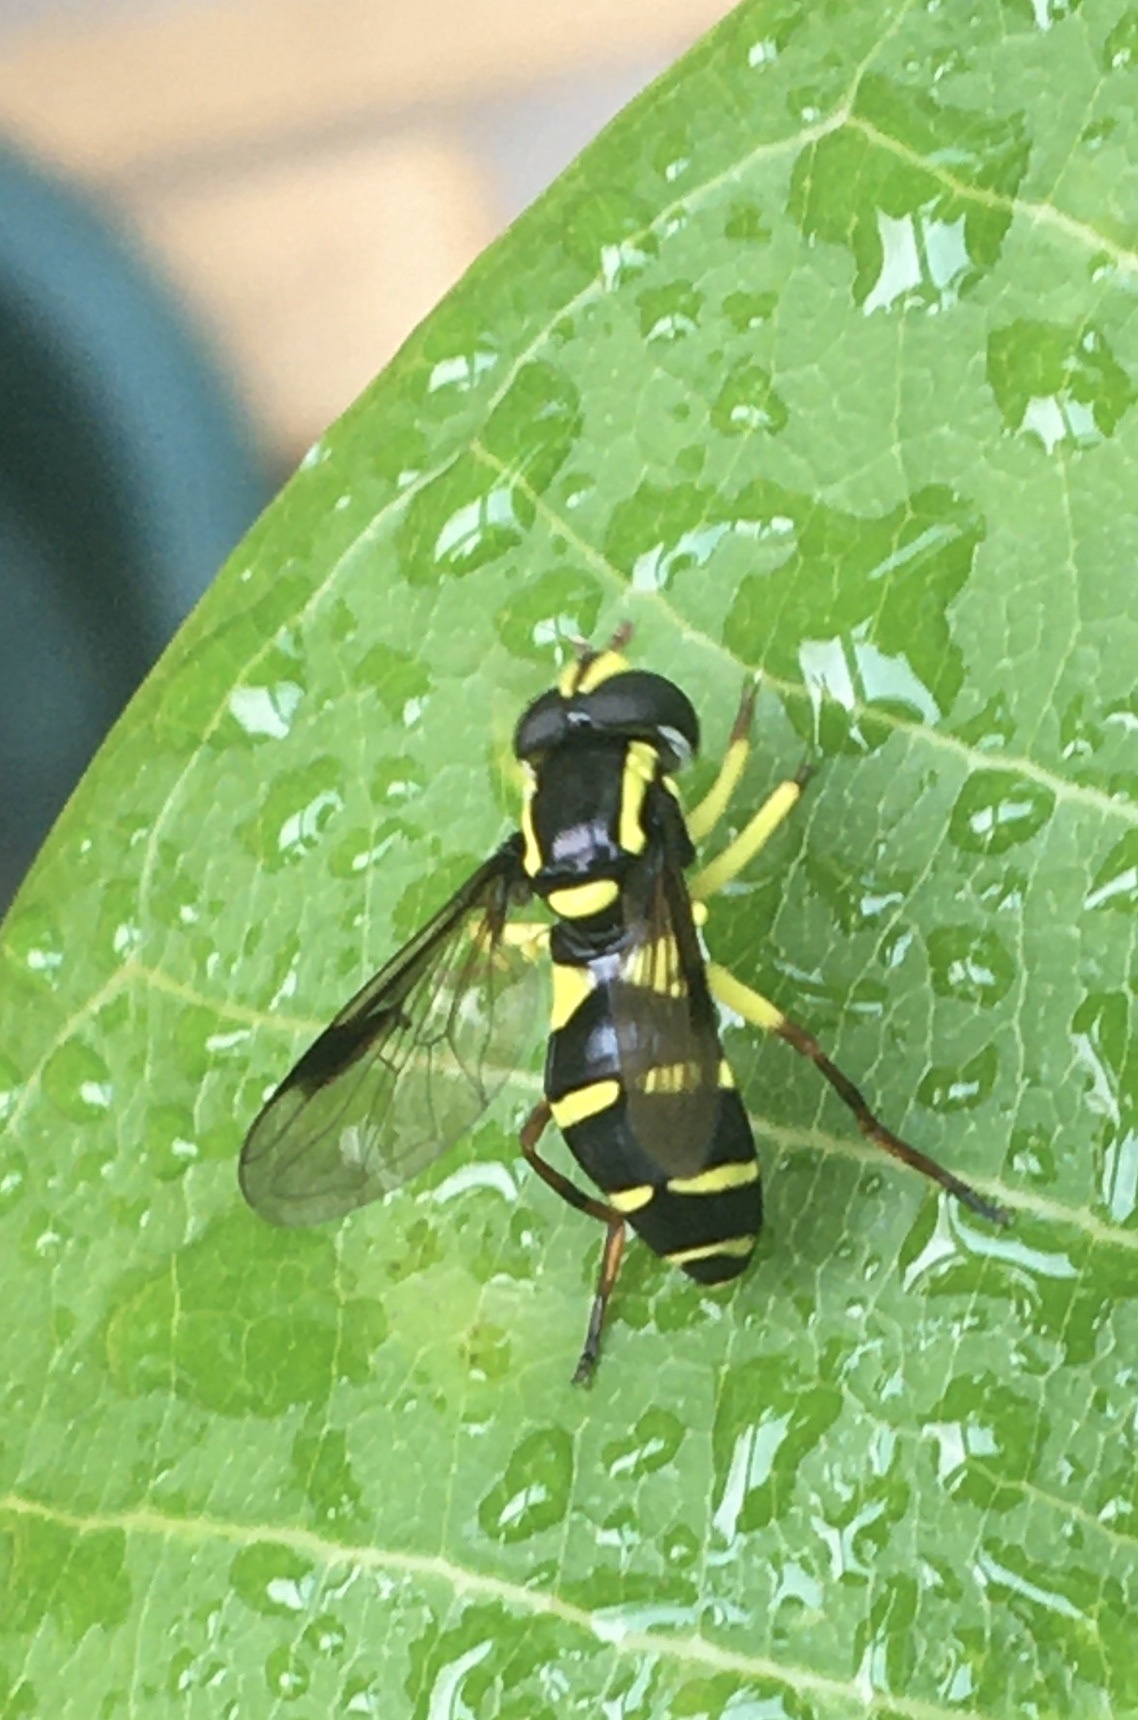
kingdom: Animalia
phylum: Arthropoda
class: Insecta
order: Diptera
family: Syrphidae
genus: Philhelius
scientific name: Philhelius pedissequum
